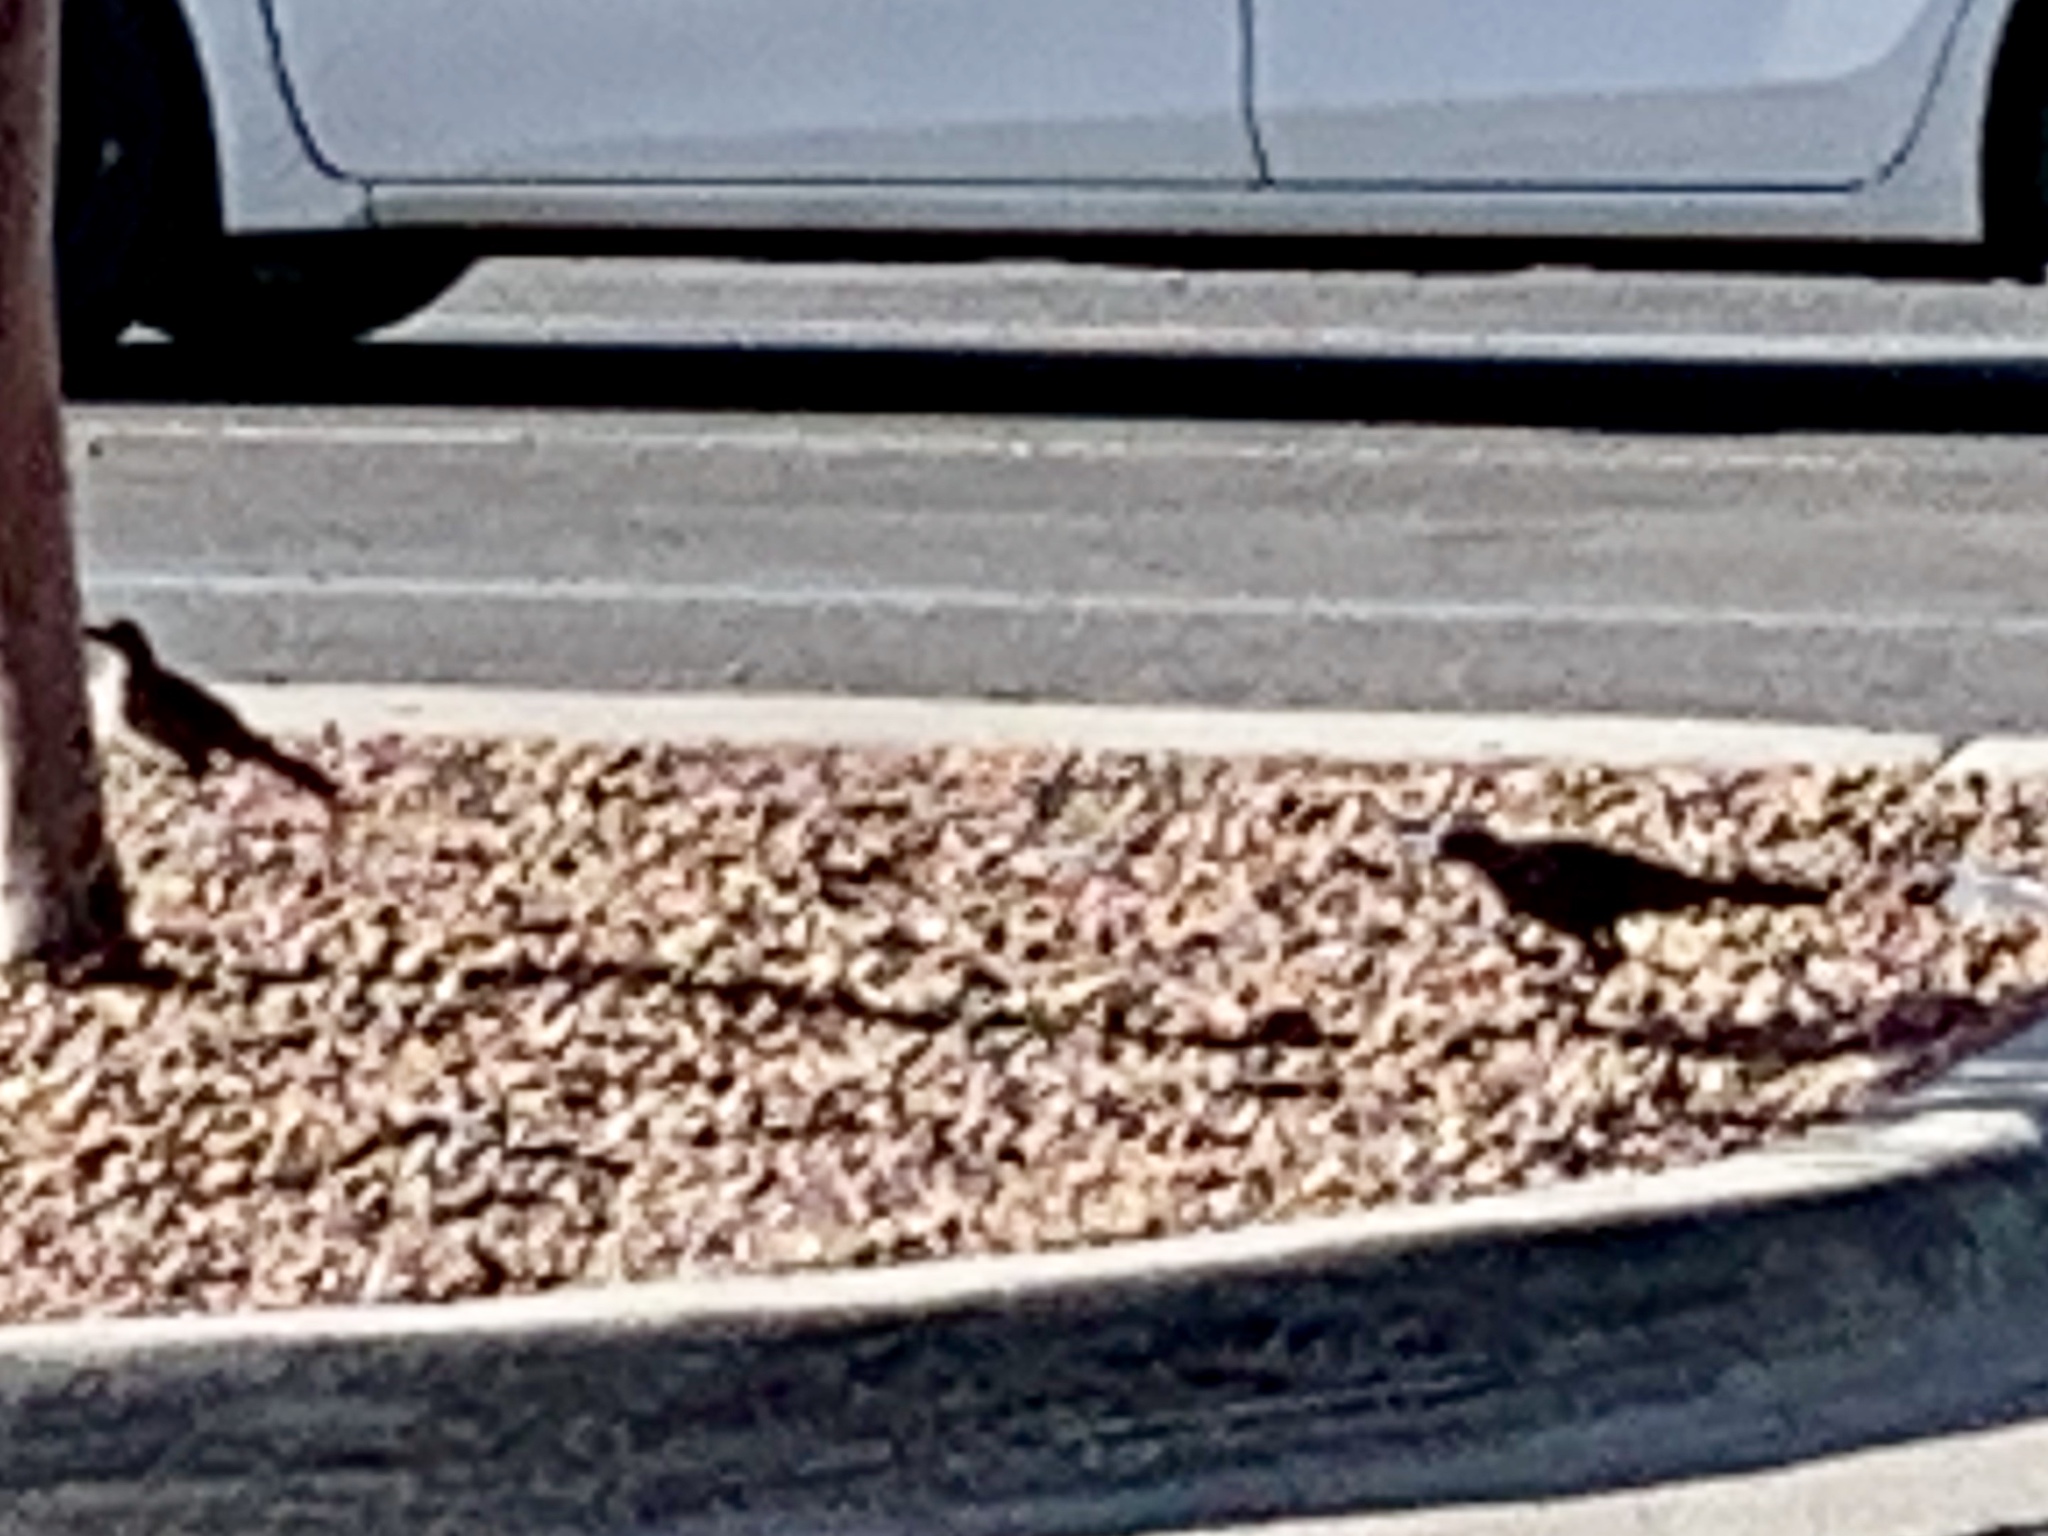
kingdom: Animalia
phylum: Chordata
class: Aves
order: Passeriformes
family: Icteridae
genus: Quiscalus
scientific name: Quiscalus mexicanus
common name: Great-tailed grackle
